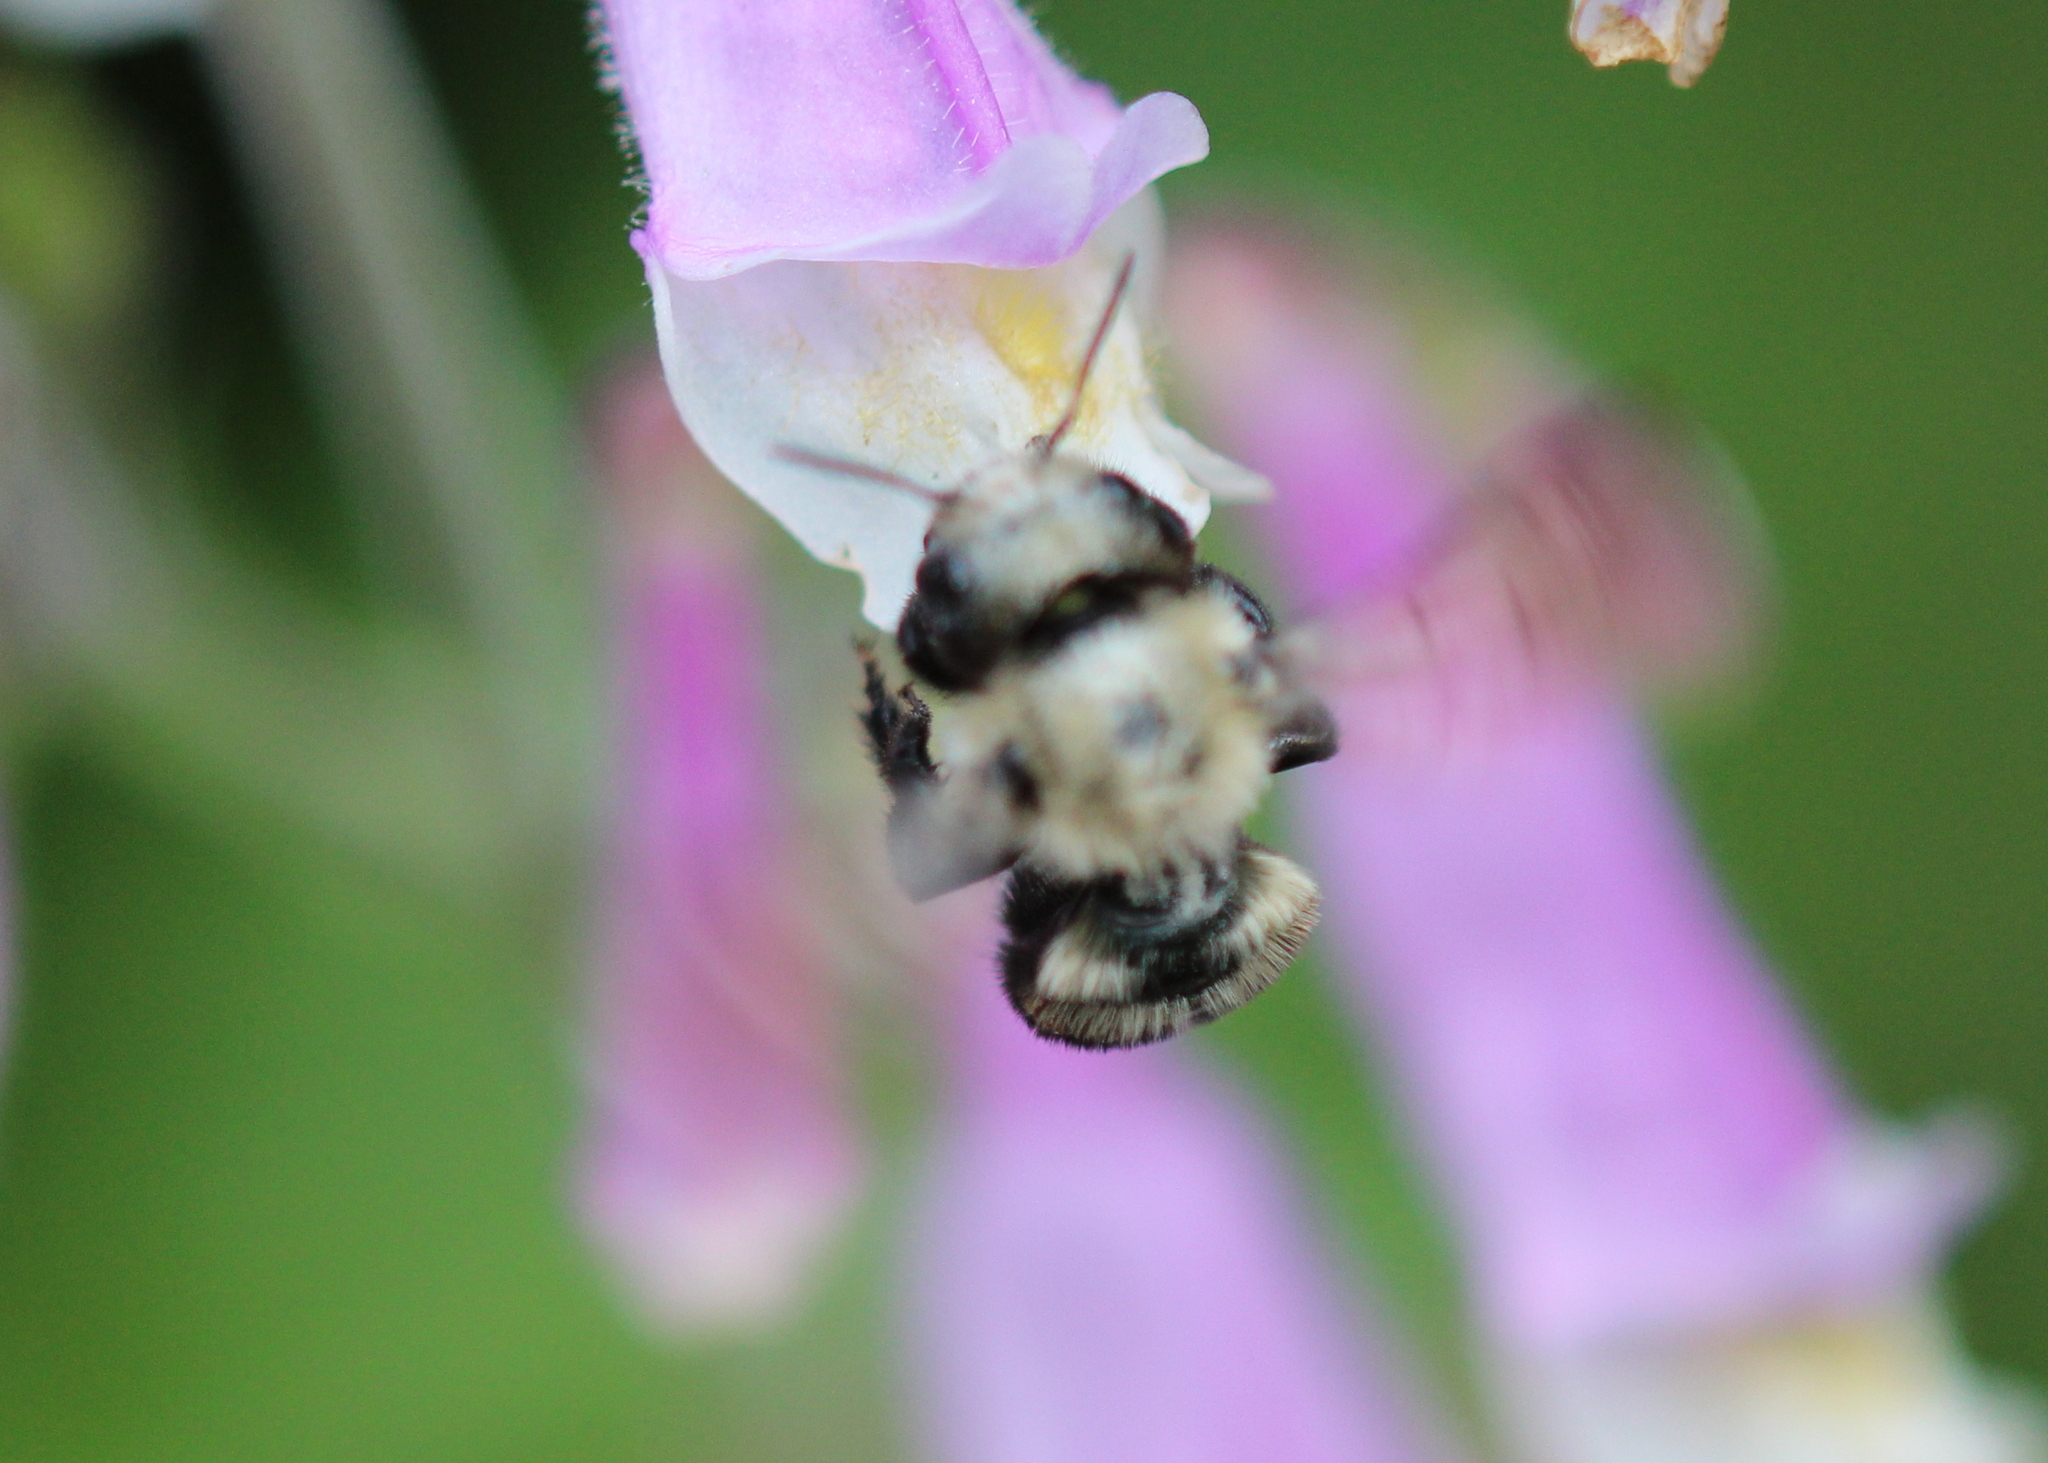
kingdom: Animalia
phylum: Arthropoda
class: Insecta
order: Hymenoptera
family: Megachilidae
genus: Osmia
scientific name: Osmia bucephala
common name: Bufflehead mason bee
